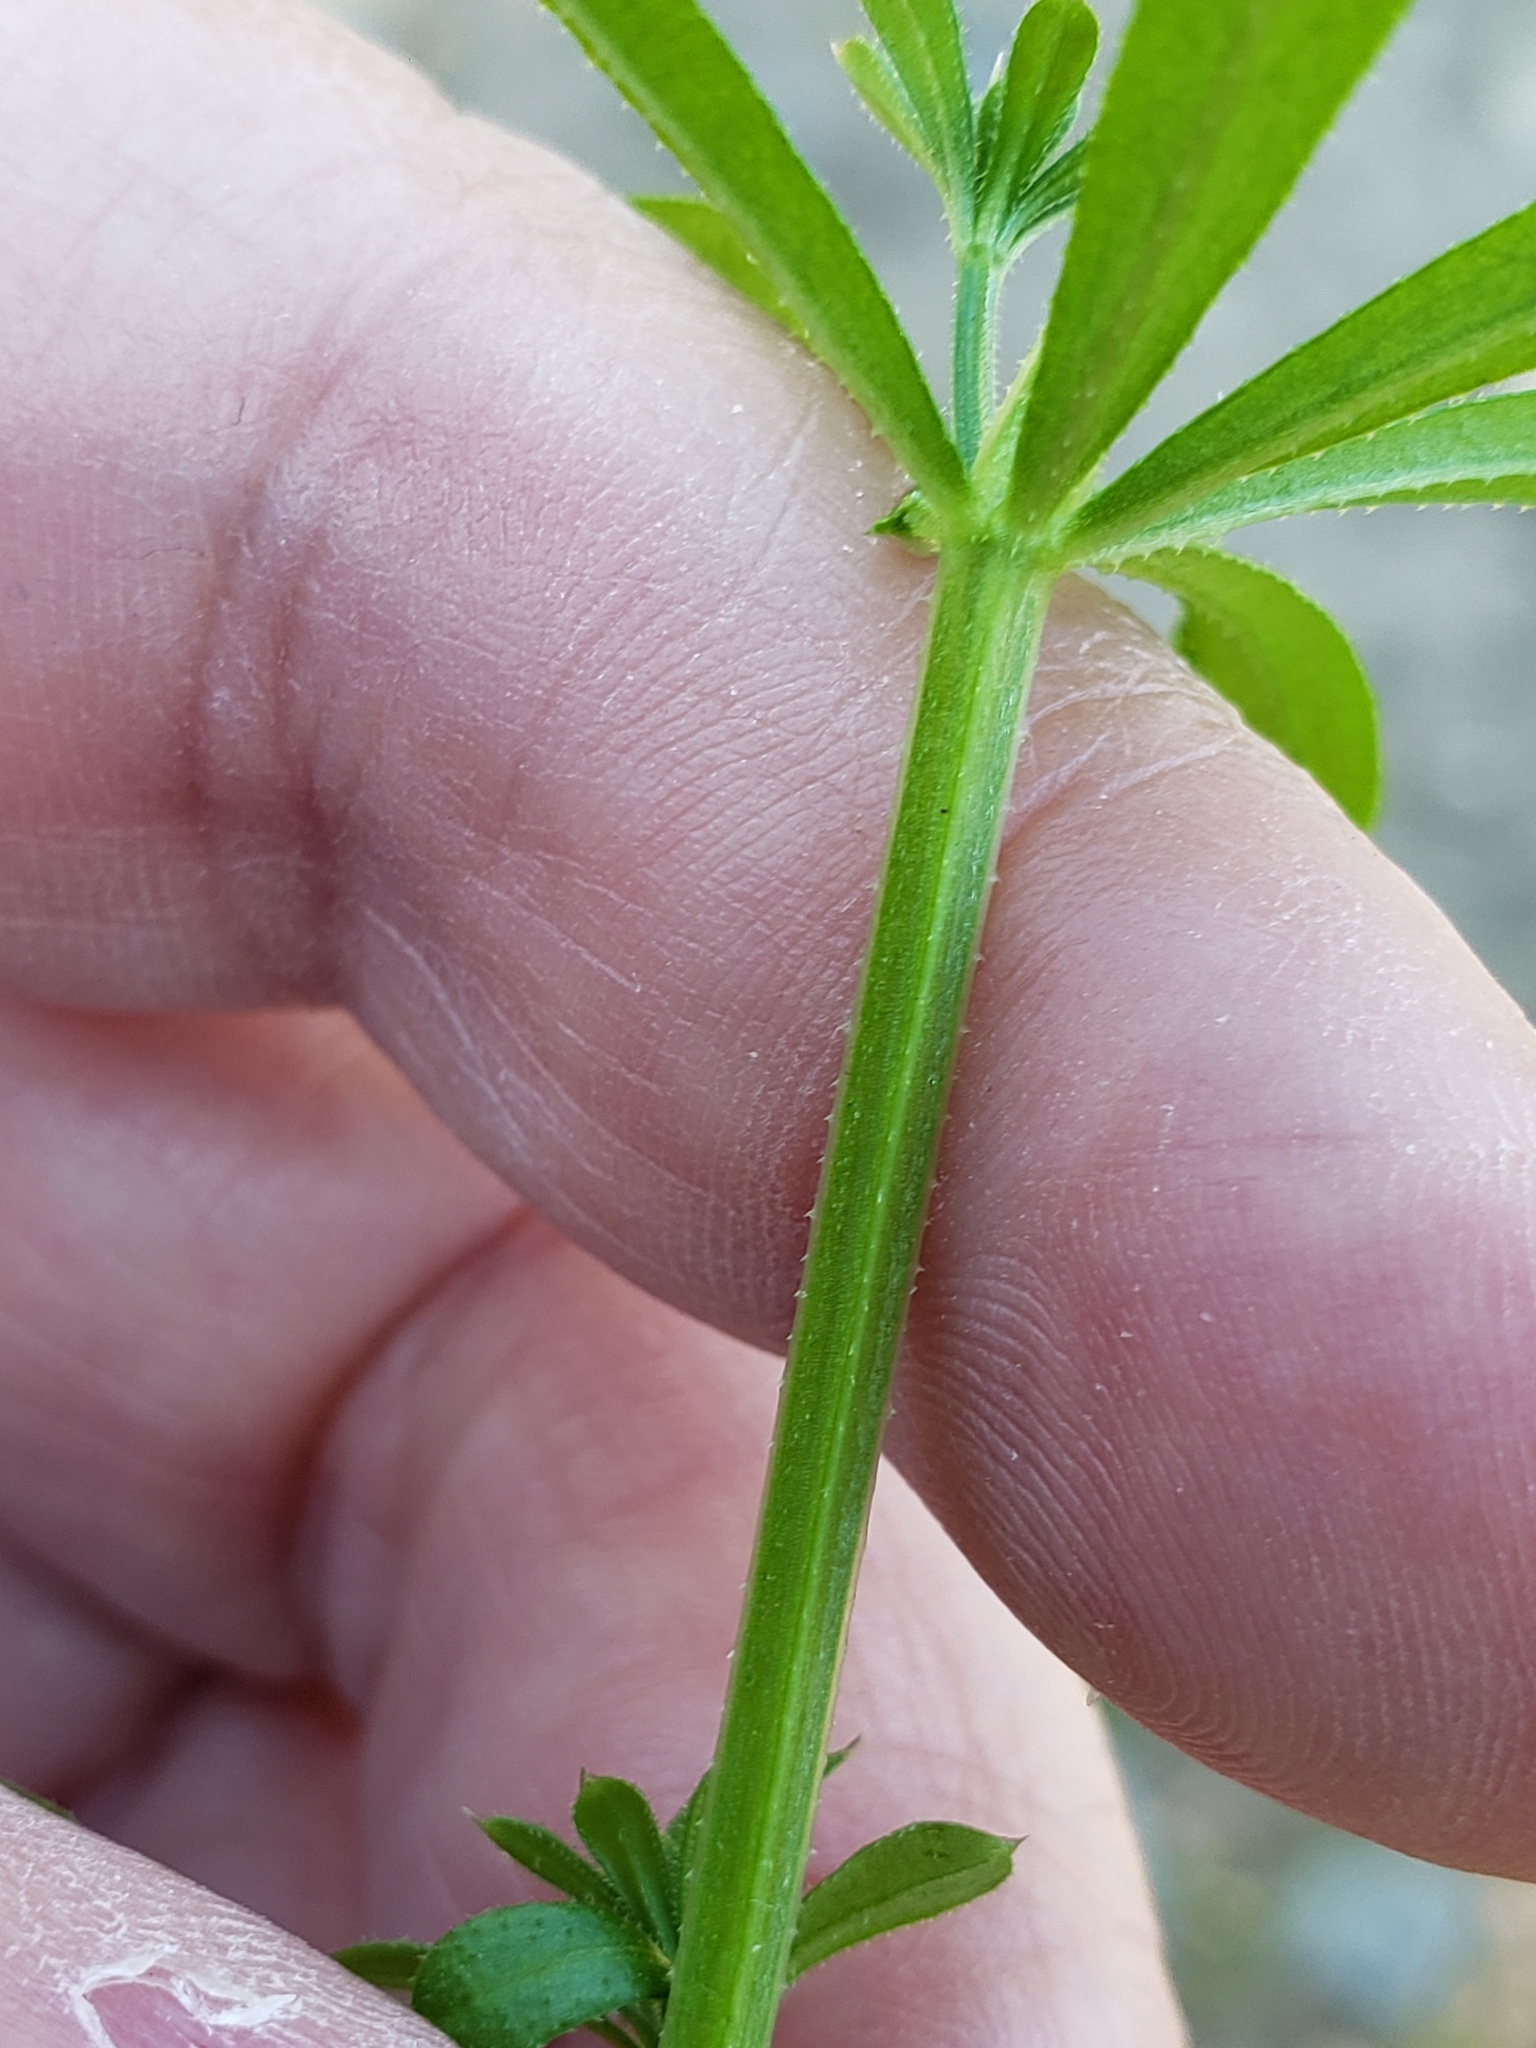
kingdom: Plantae
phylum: Tracheophyta
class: Magnoliopsida
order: Gentianales
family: Rubiaceae
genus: Galium
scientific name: Galium aparine
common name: Cleavers
